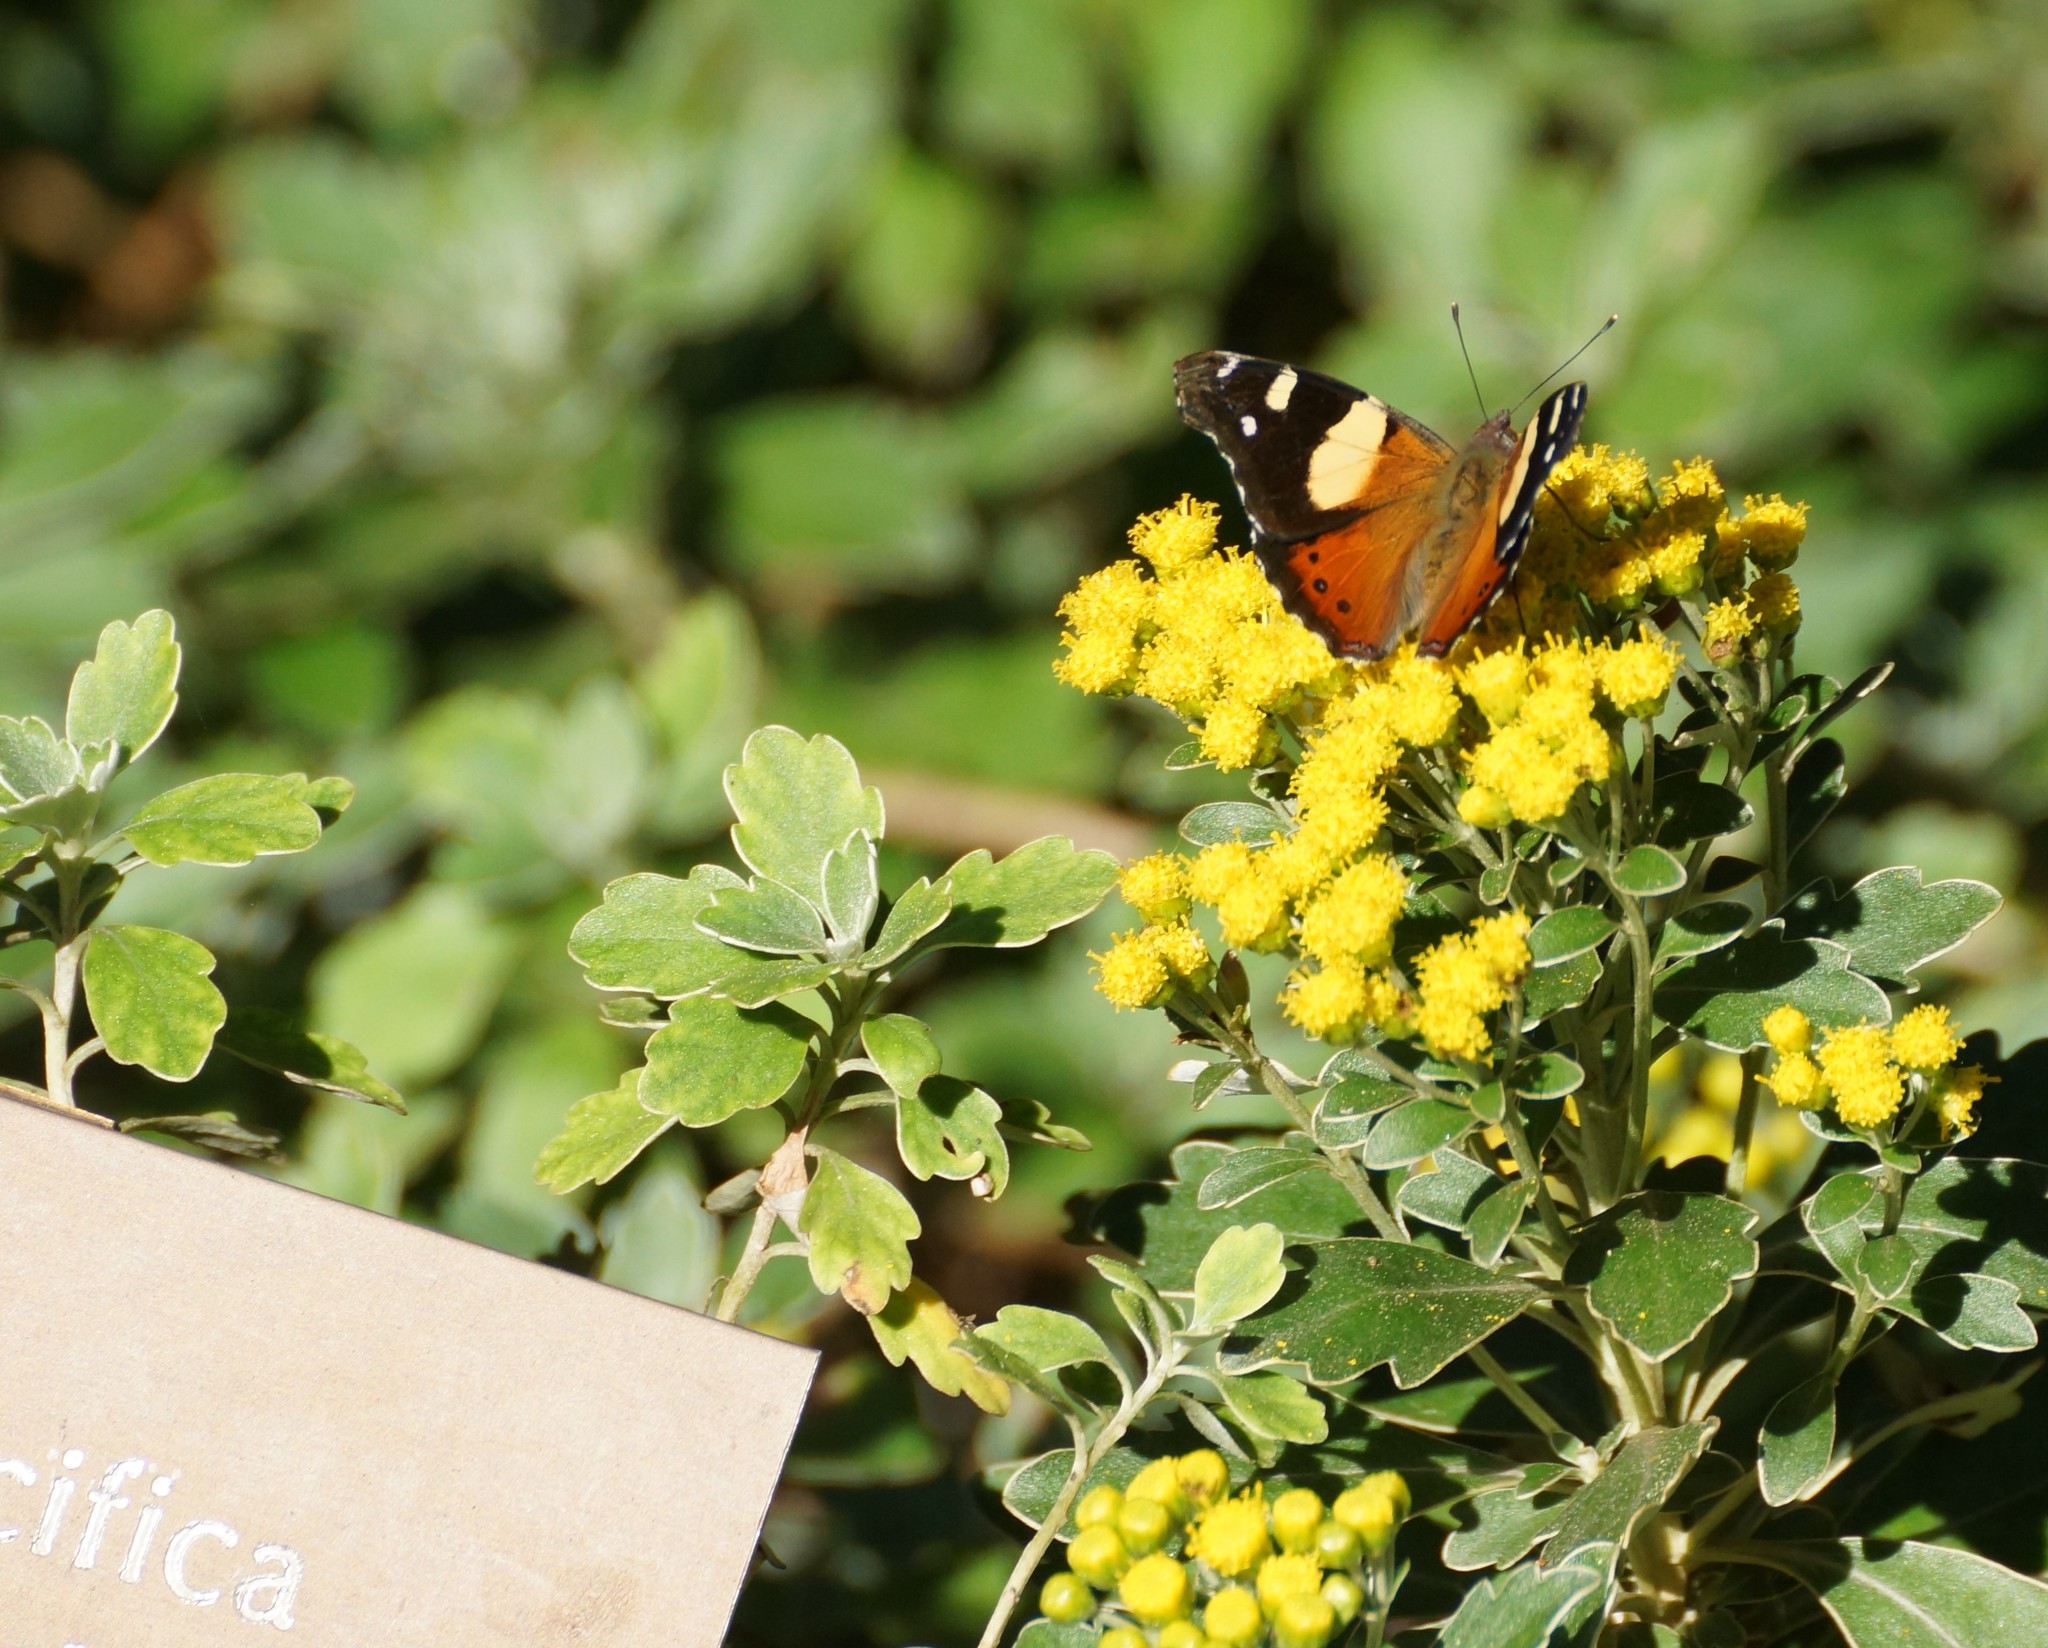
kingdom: Animalia
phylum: Arthropoda
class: Insecta
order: Lepidoptera
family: Nymphalidae
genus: Vanessa
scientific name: Vanessa itea
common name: Yellow admiral
